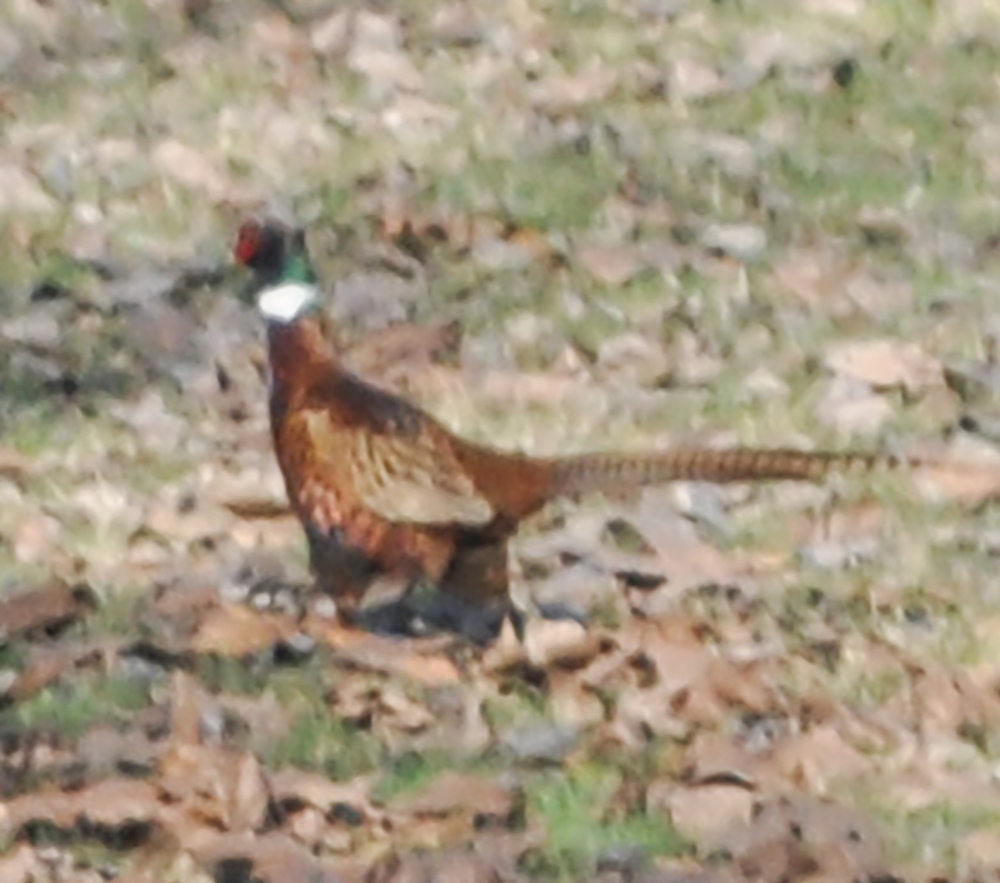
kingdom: Animalia
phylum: Chordata
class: Aves
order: Galliformes
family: Phasianidae
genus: Phasianus
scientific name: Phasianus colchicus
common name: Common pheasant
